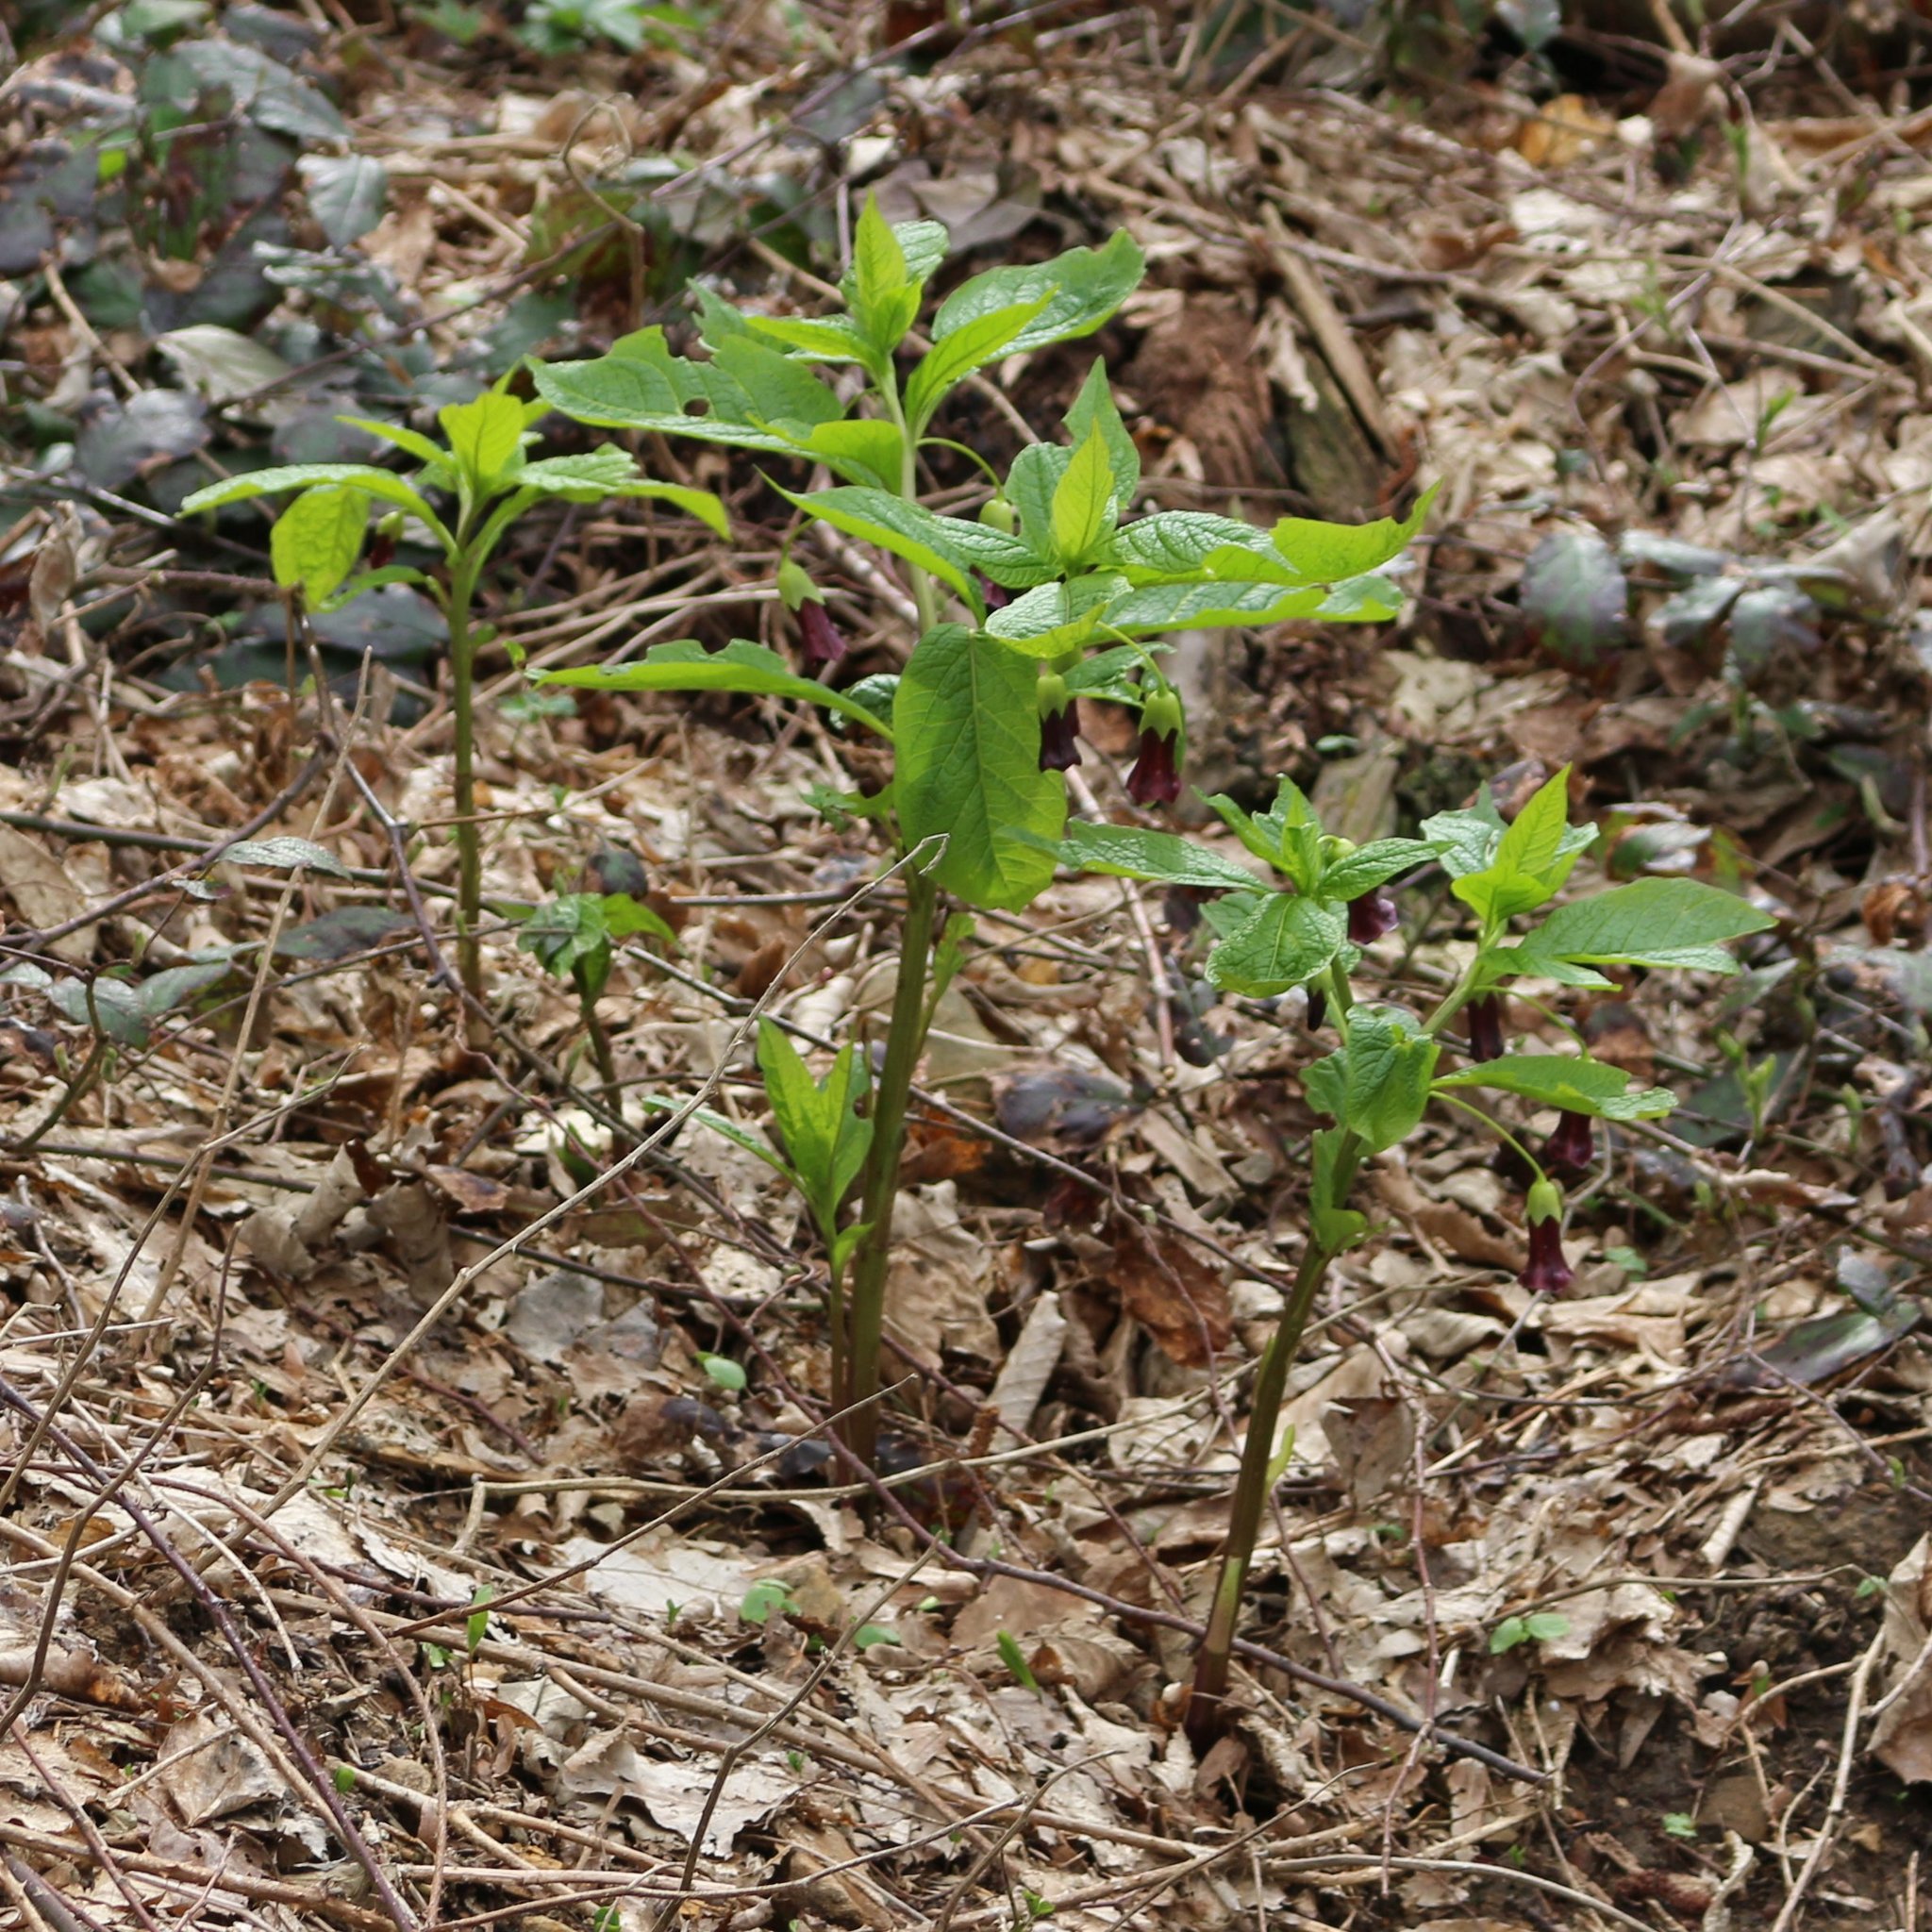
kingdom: Plantae
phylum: Tracheophyta
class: Magnoliopsida
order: Solanales
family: Solanaceae
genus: Scopolia
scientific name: Scopolia carniolica
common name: Scopolia
